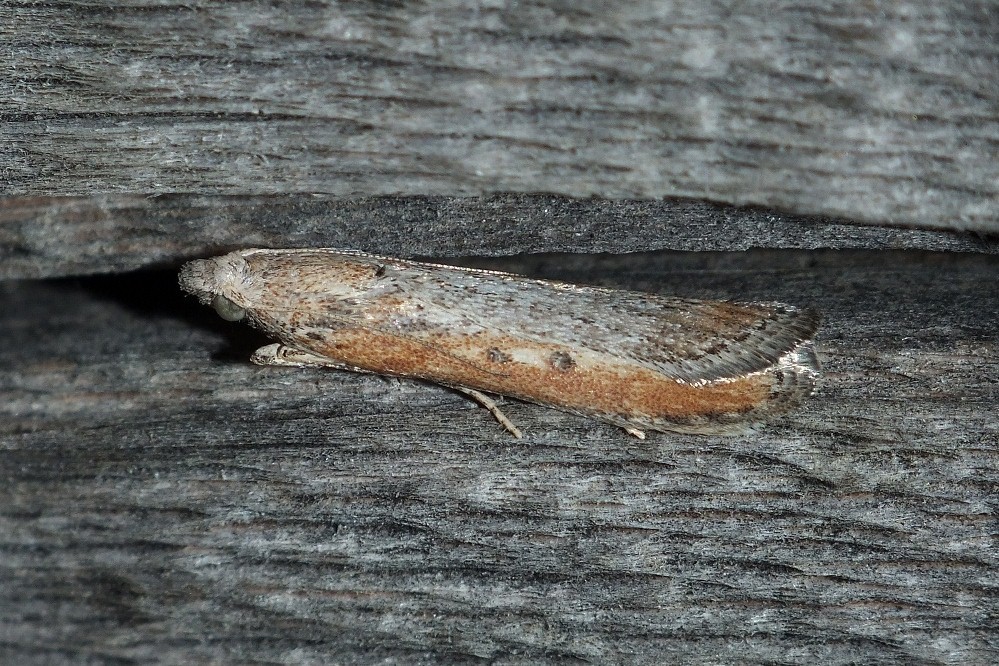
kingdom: Animalia
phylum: Arthropoda
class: Insecta
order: Lepidoptera
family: Pyralidae
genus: Aphomia
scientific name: Aphomia zelleri
